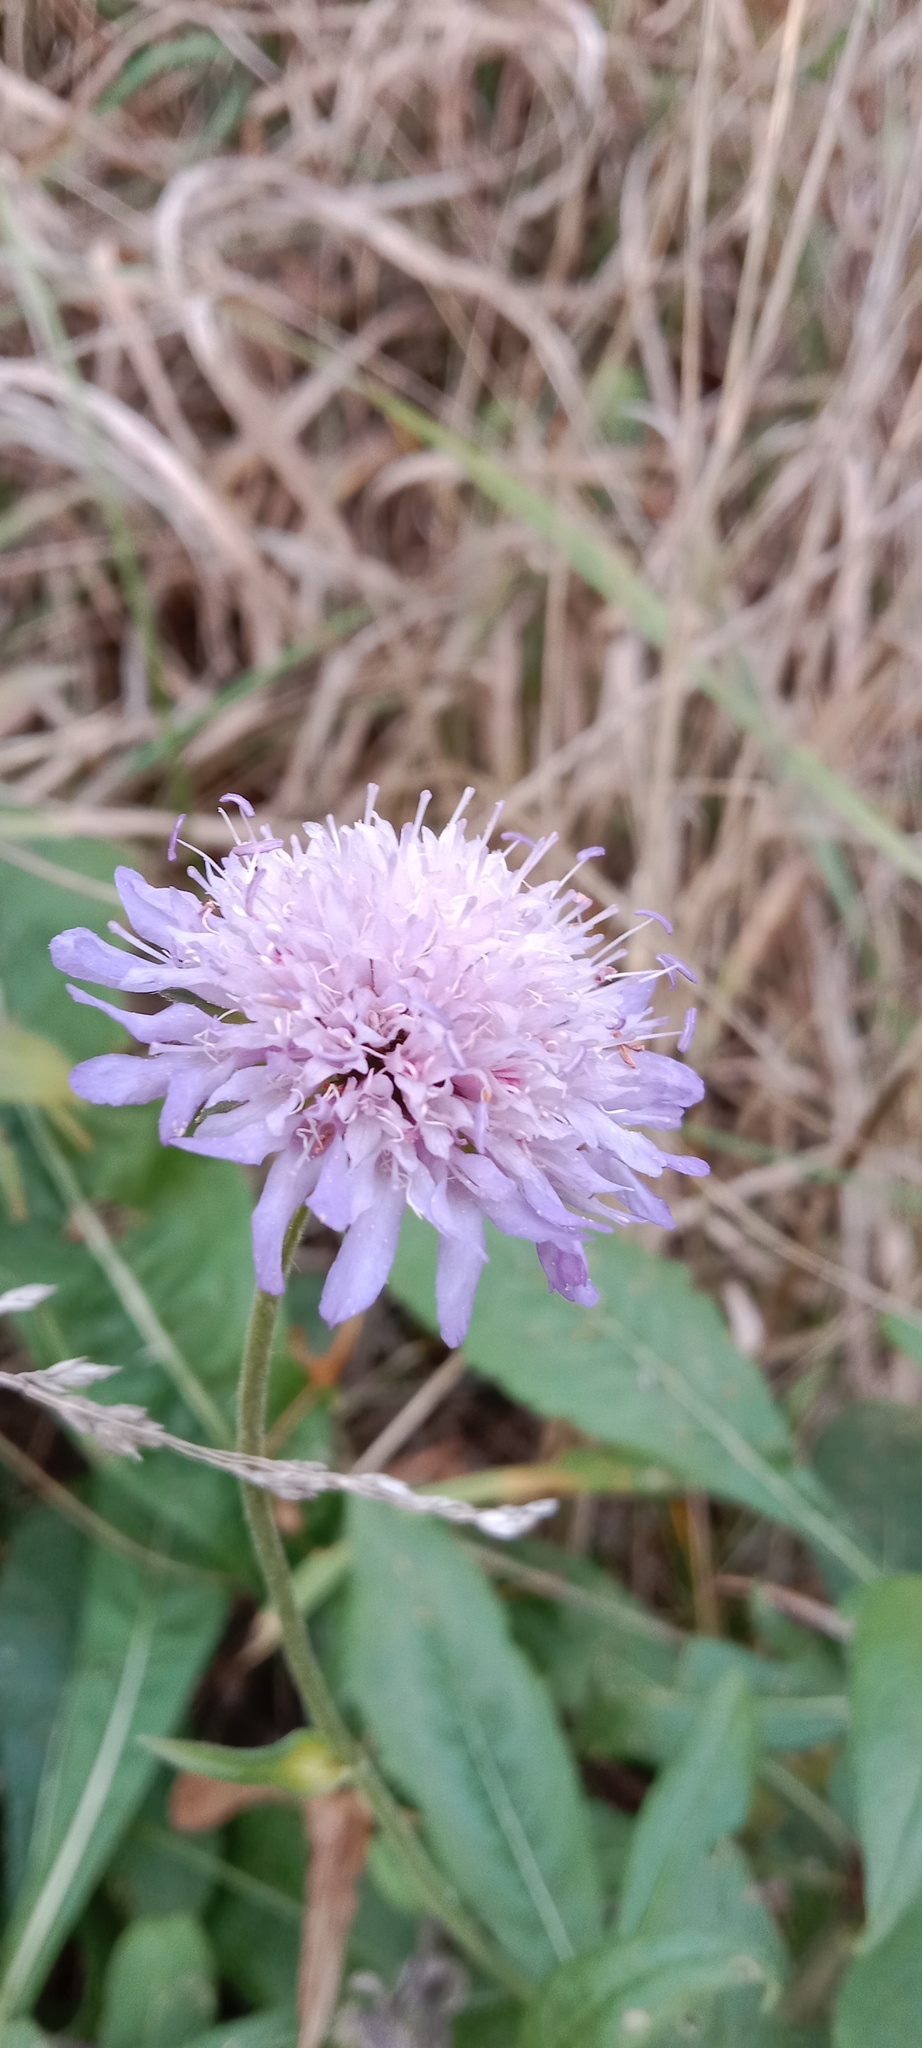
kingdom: Plantae
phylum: Tracheophyta
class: Magnoliopsida
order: Dipsacales
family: Caprifoliaceae
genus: Knautia
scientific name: Knautia arvensis
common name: Field scabiosa
